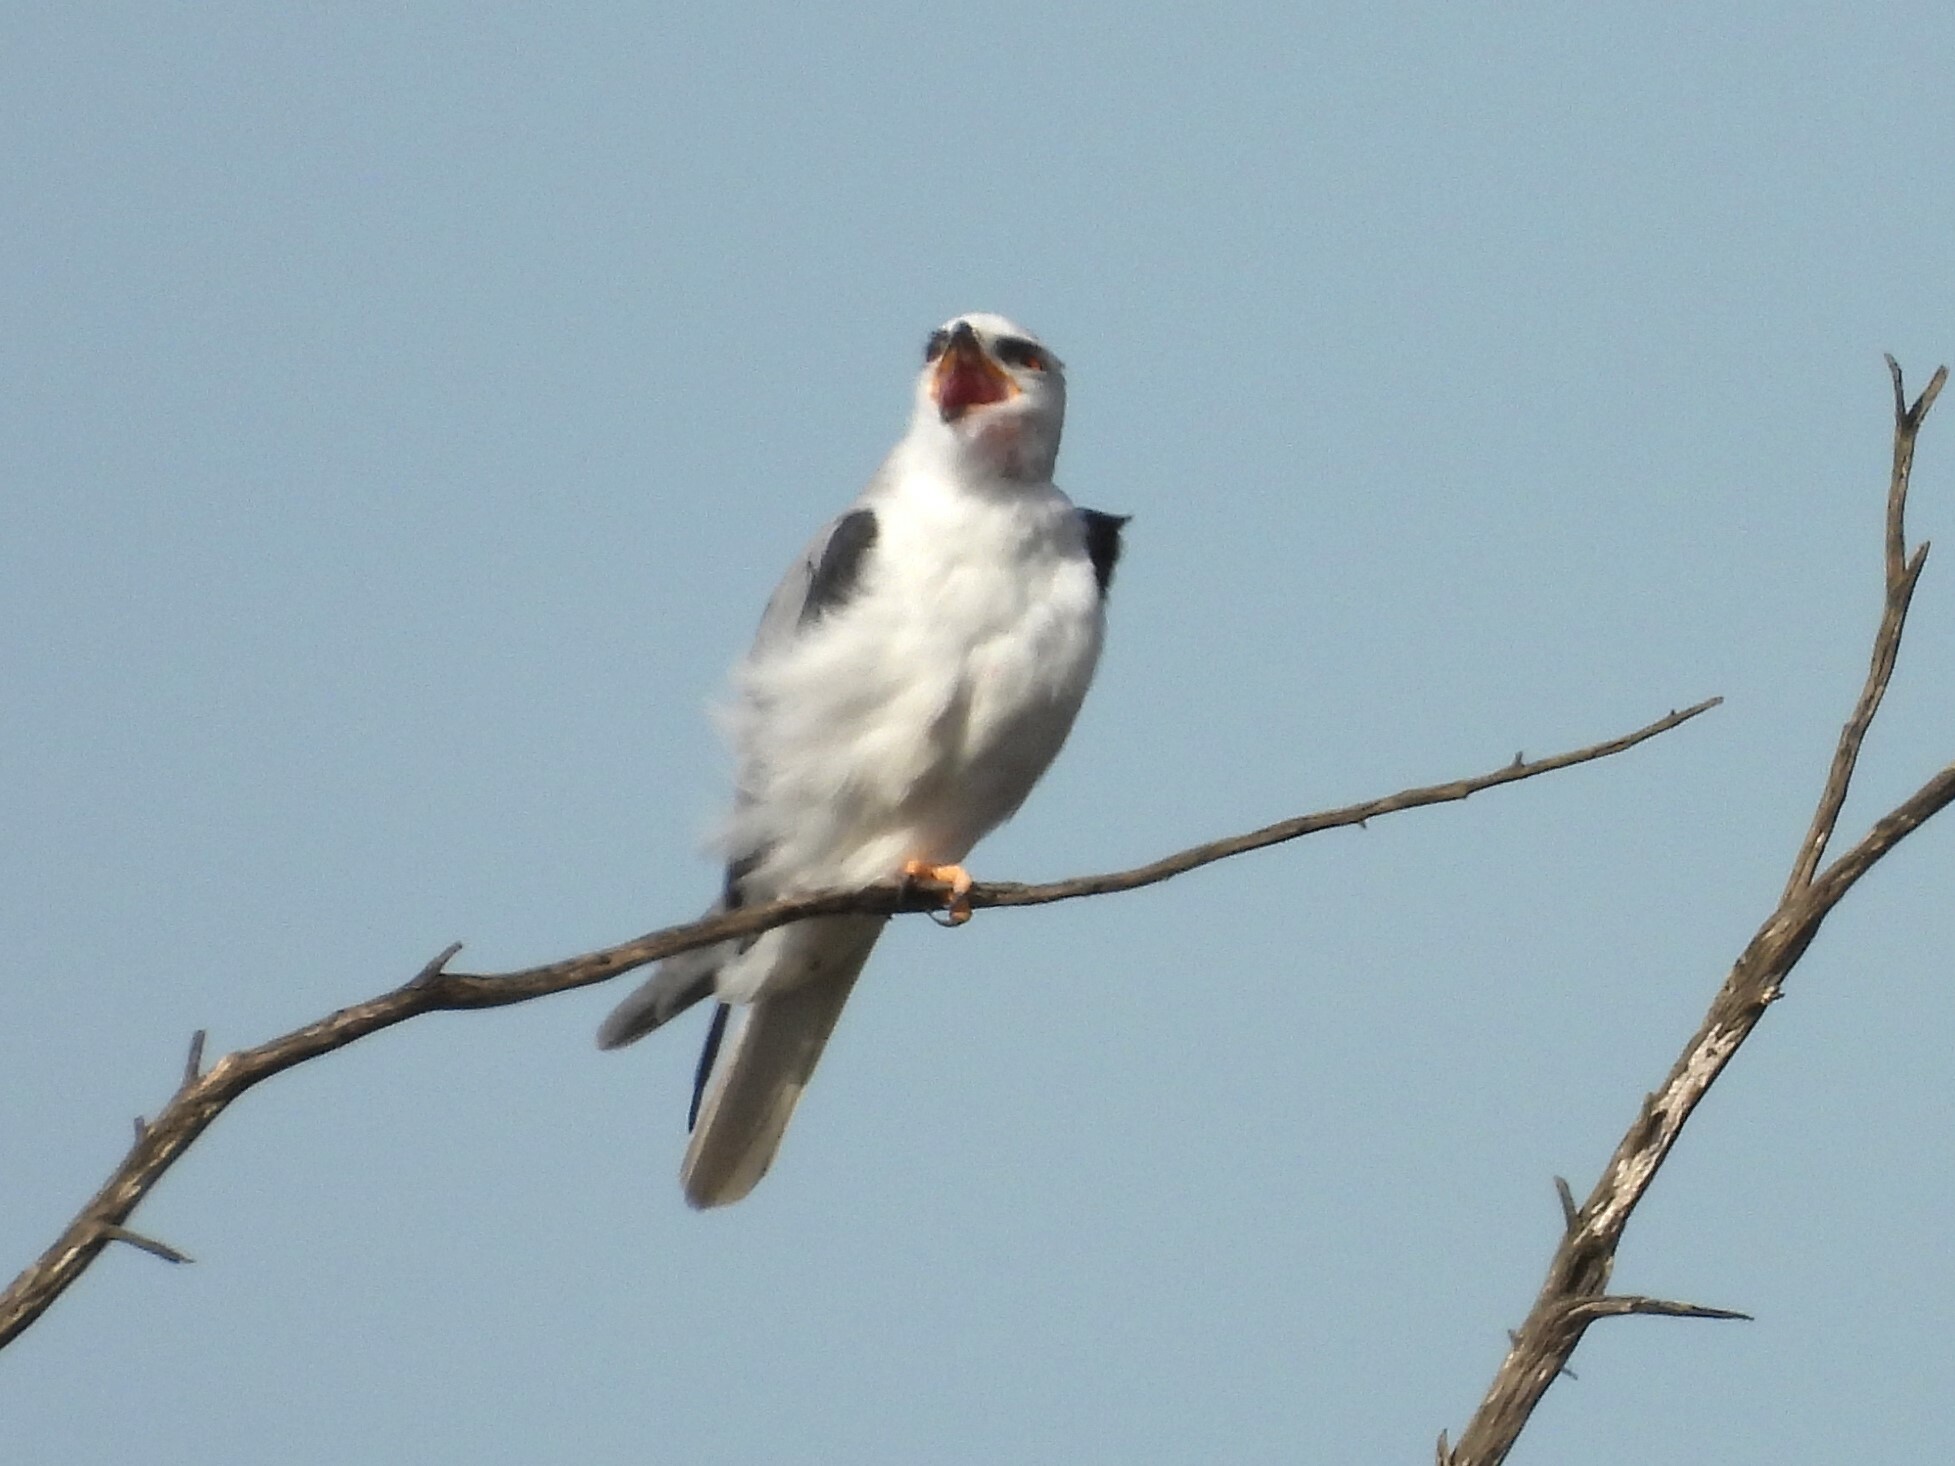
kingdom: Animalia
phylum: Chordata
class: Aves
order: Accipitriformes
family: Accipitridae
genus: Elanus
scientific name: Elanus leucurus
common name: White-tailed kite
